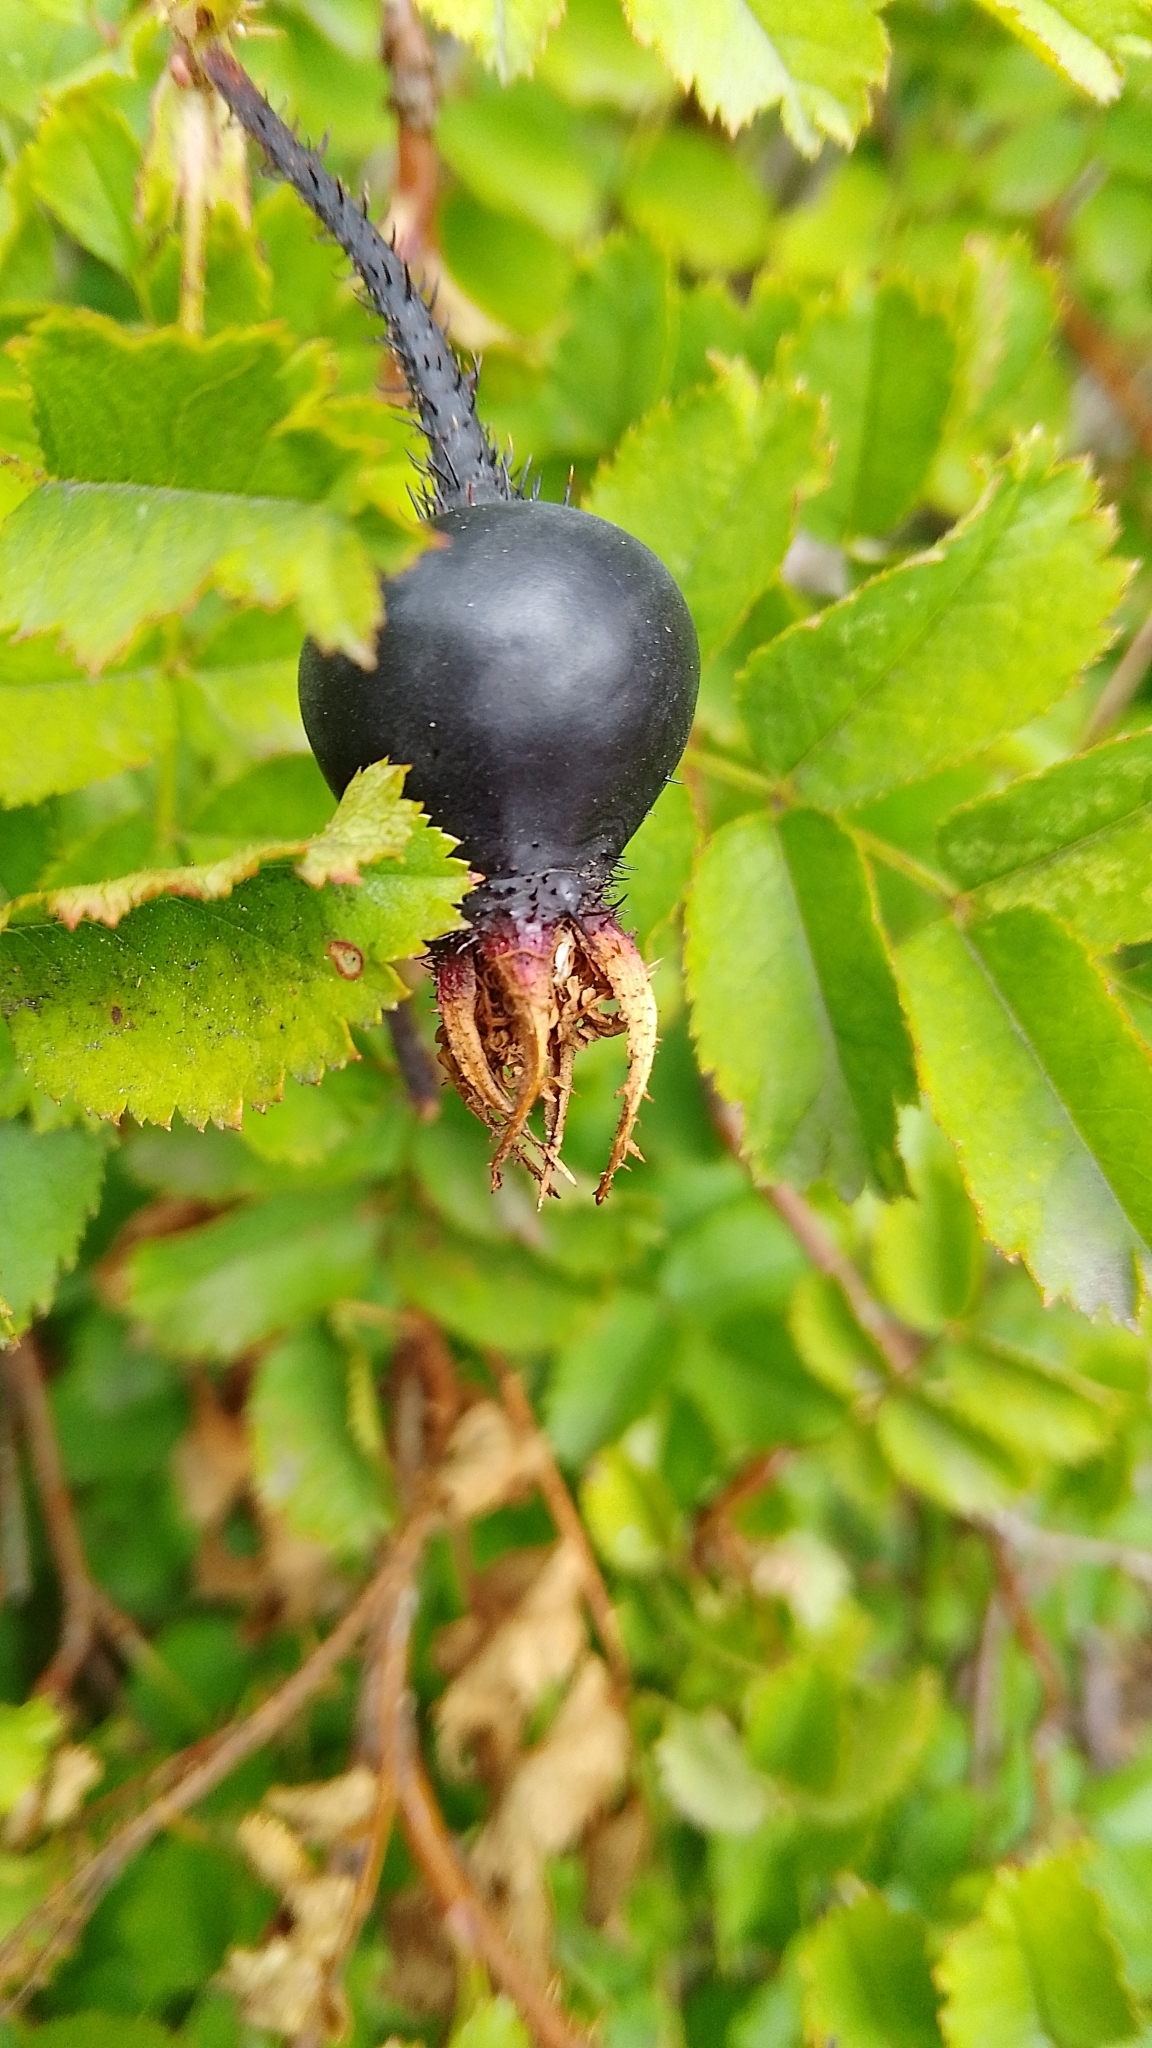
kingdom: Plantae
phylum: Tracheophyta
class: Magnoliopsida
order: Rosales
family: Rosaceae
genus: Rosa
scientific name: Rosa spinosissima
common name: Burnet rose
